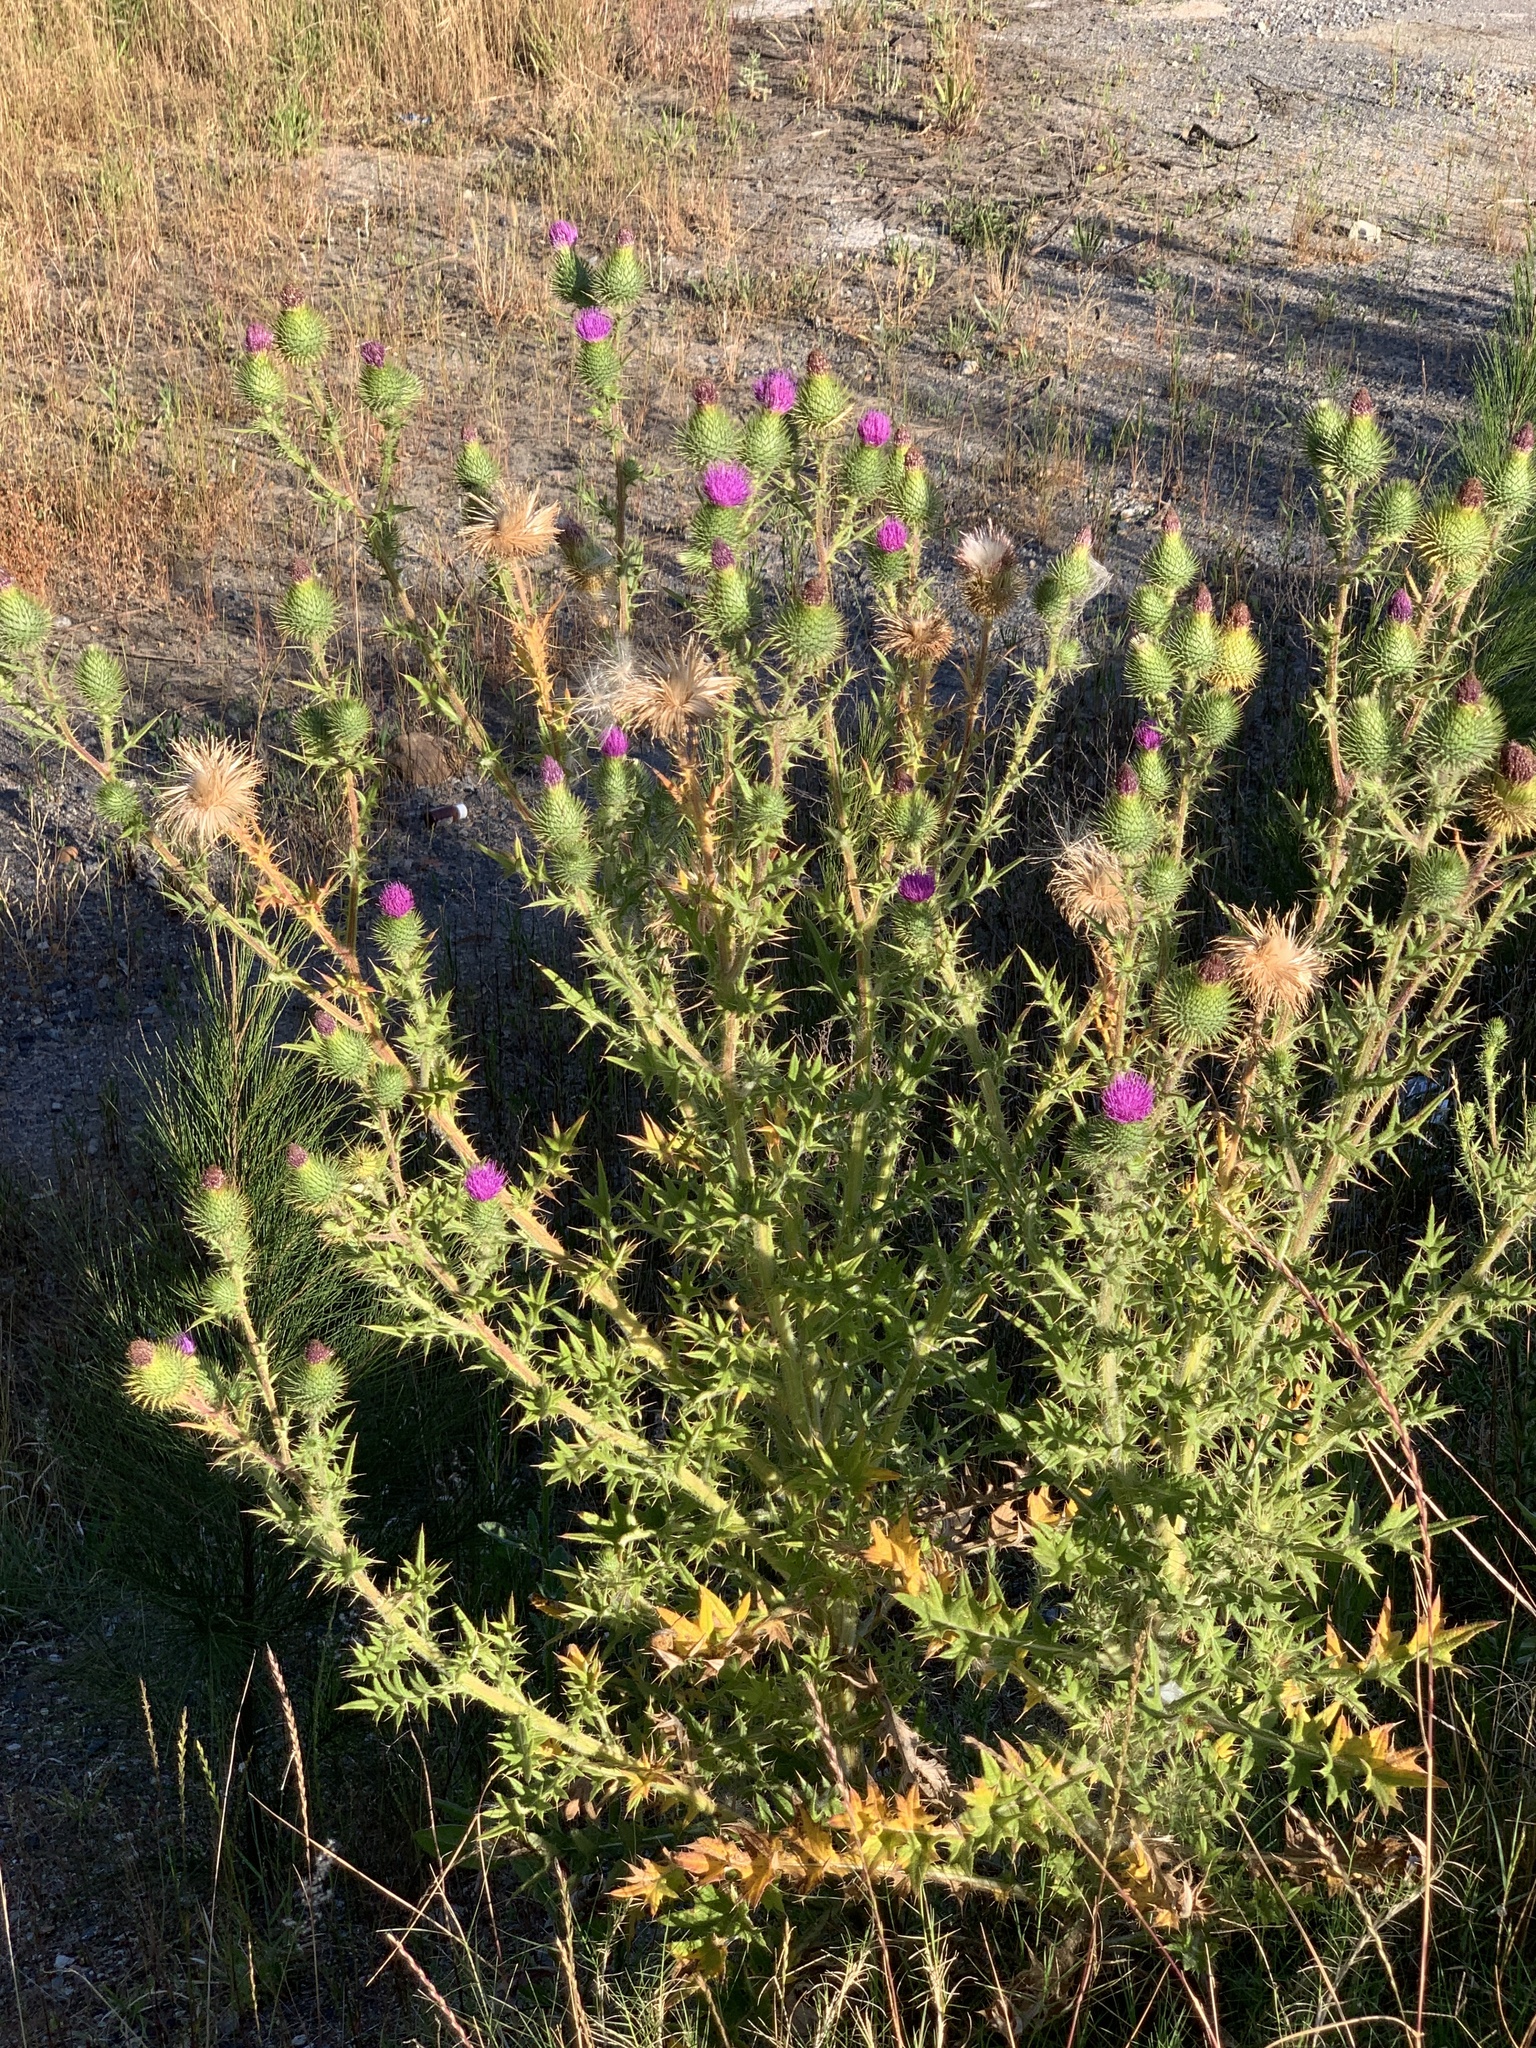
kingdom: Plantae
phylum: Tracheophyta
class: Magnoliopsida
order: Asterales
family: Asteraceae
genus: Cirsium
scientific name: Cirsium vulgare
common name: Bull thistle
